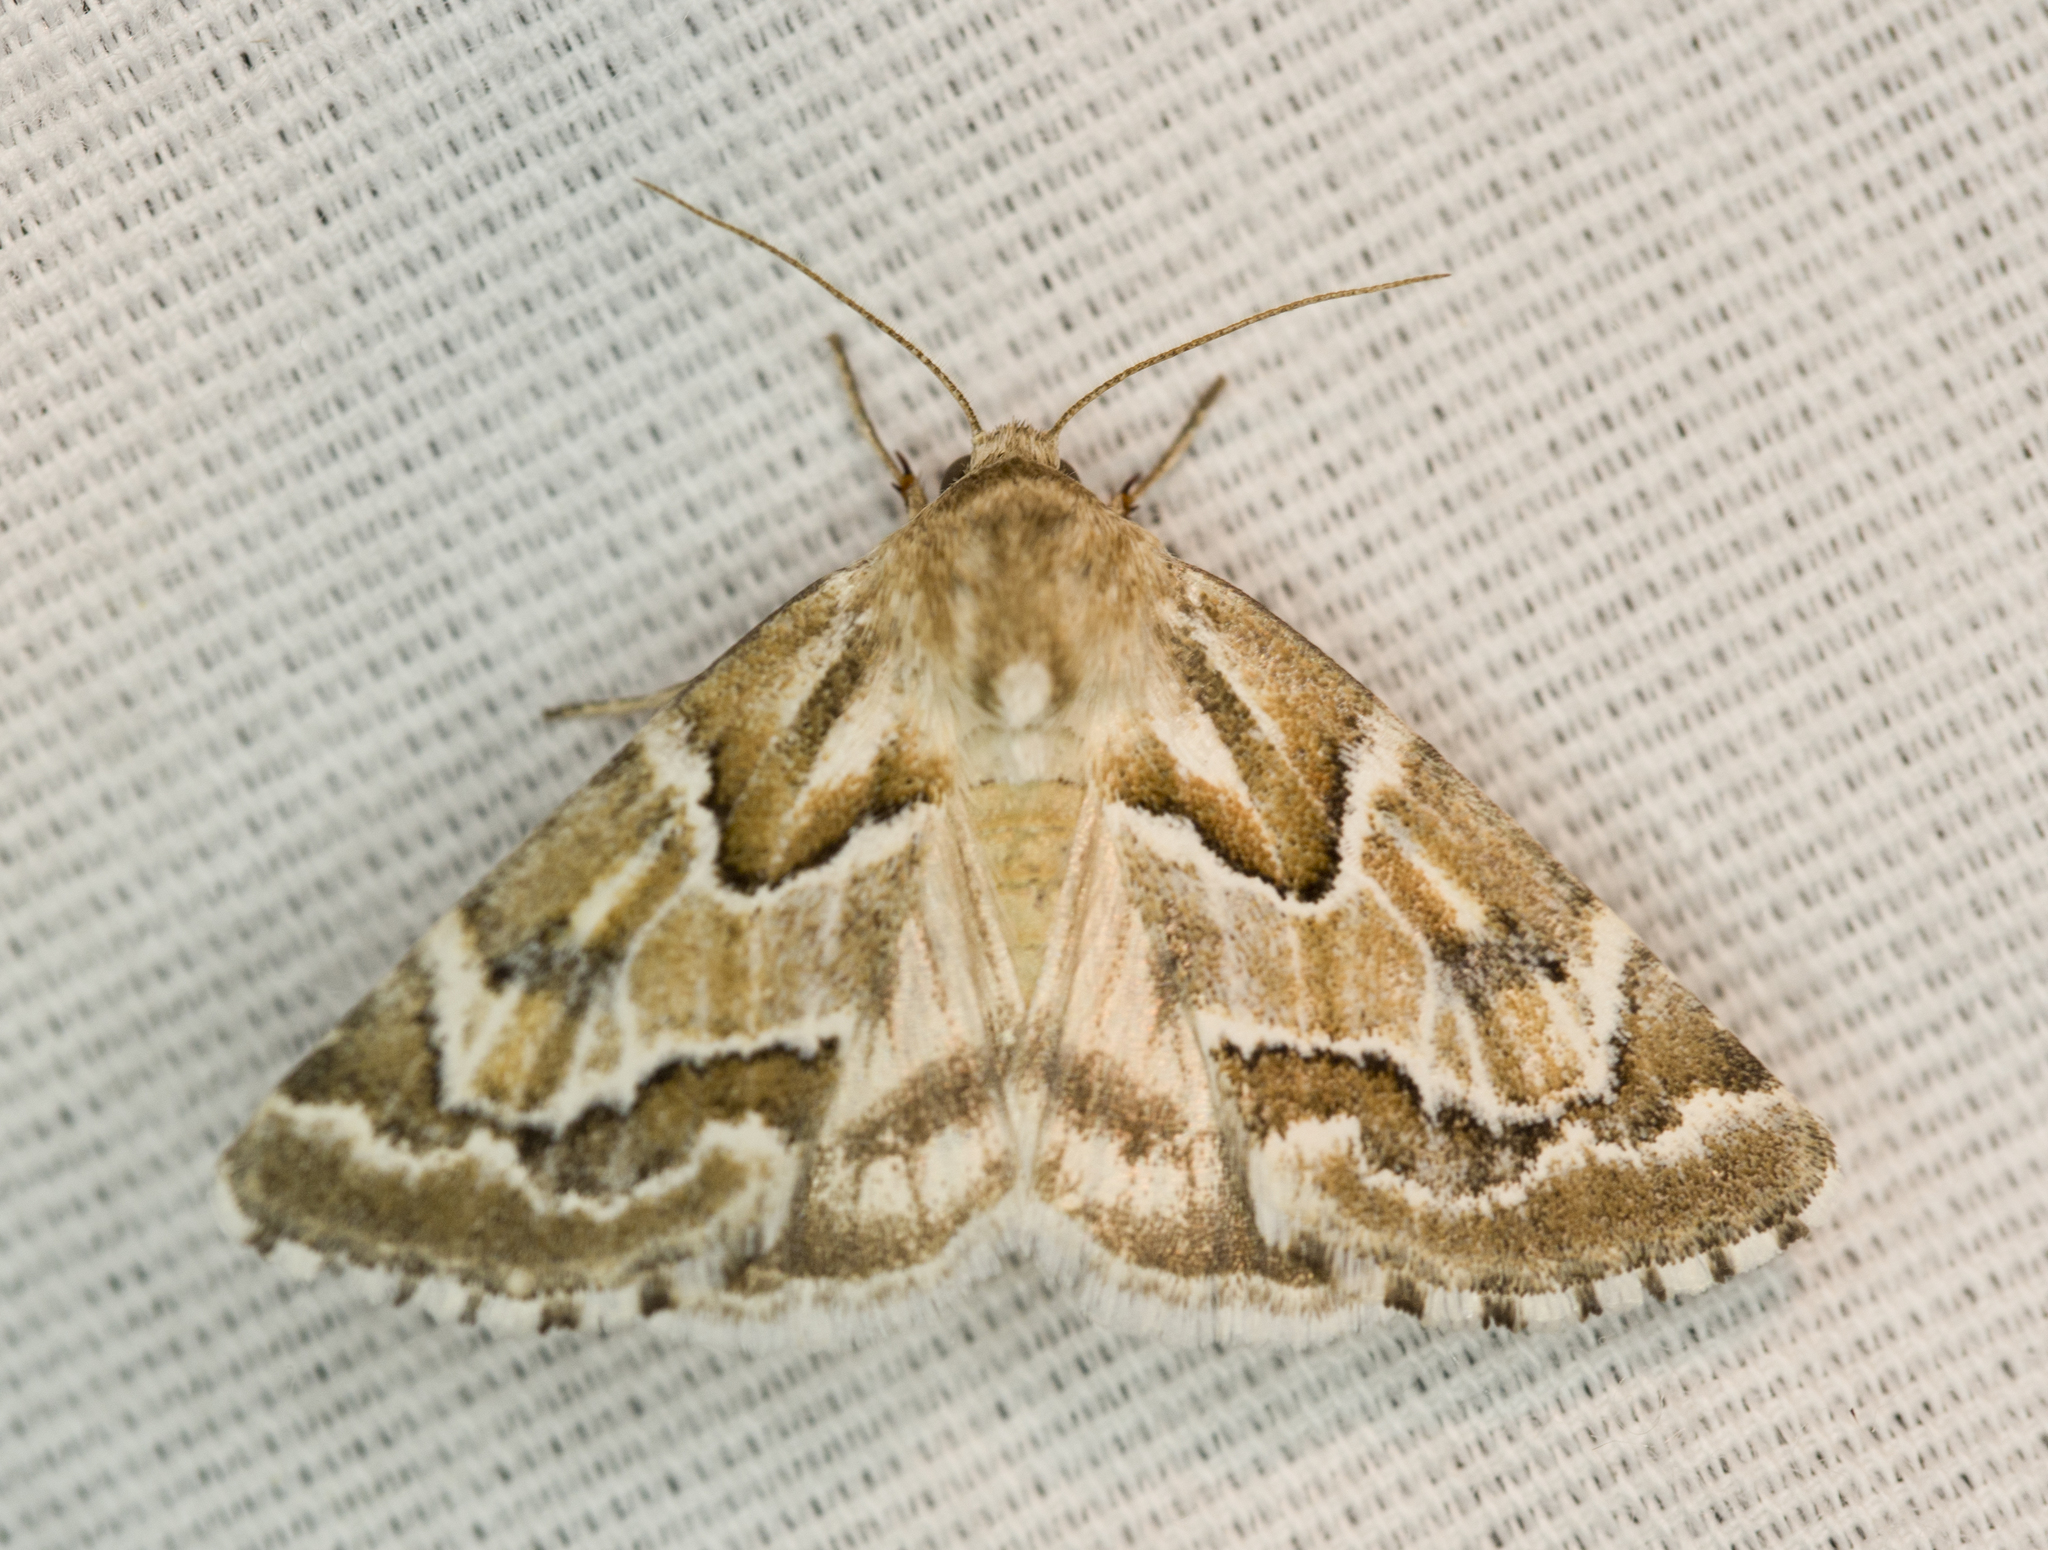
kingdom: Animalia
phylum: Arthropoda
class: Insecta
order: Lepidoptera
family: Noctuidae
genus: Schinia
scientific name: Schinia acutilinea
